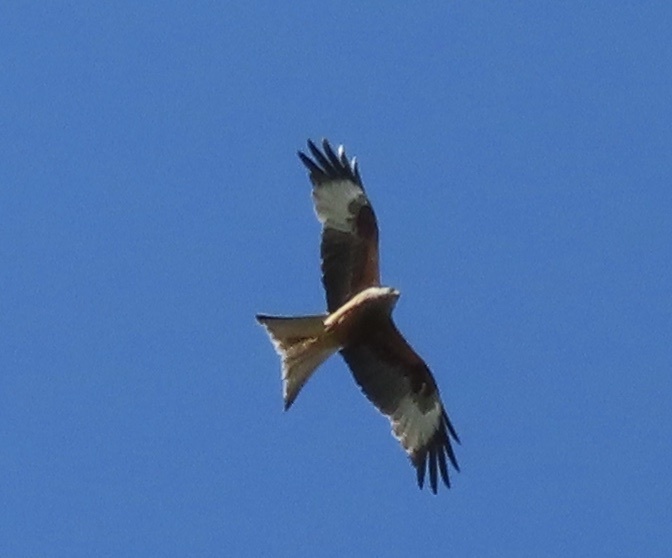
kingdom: Animalia
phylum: Chordata
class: Aves
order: Accipitriformes
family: Accipitridae
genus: Milvus
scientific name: Milvus milvus
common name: Red kite
